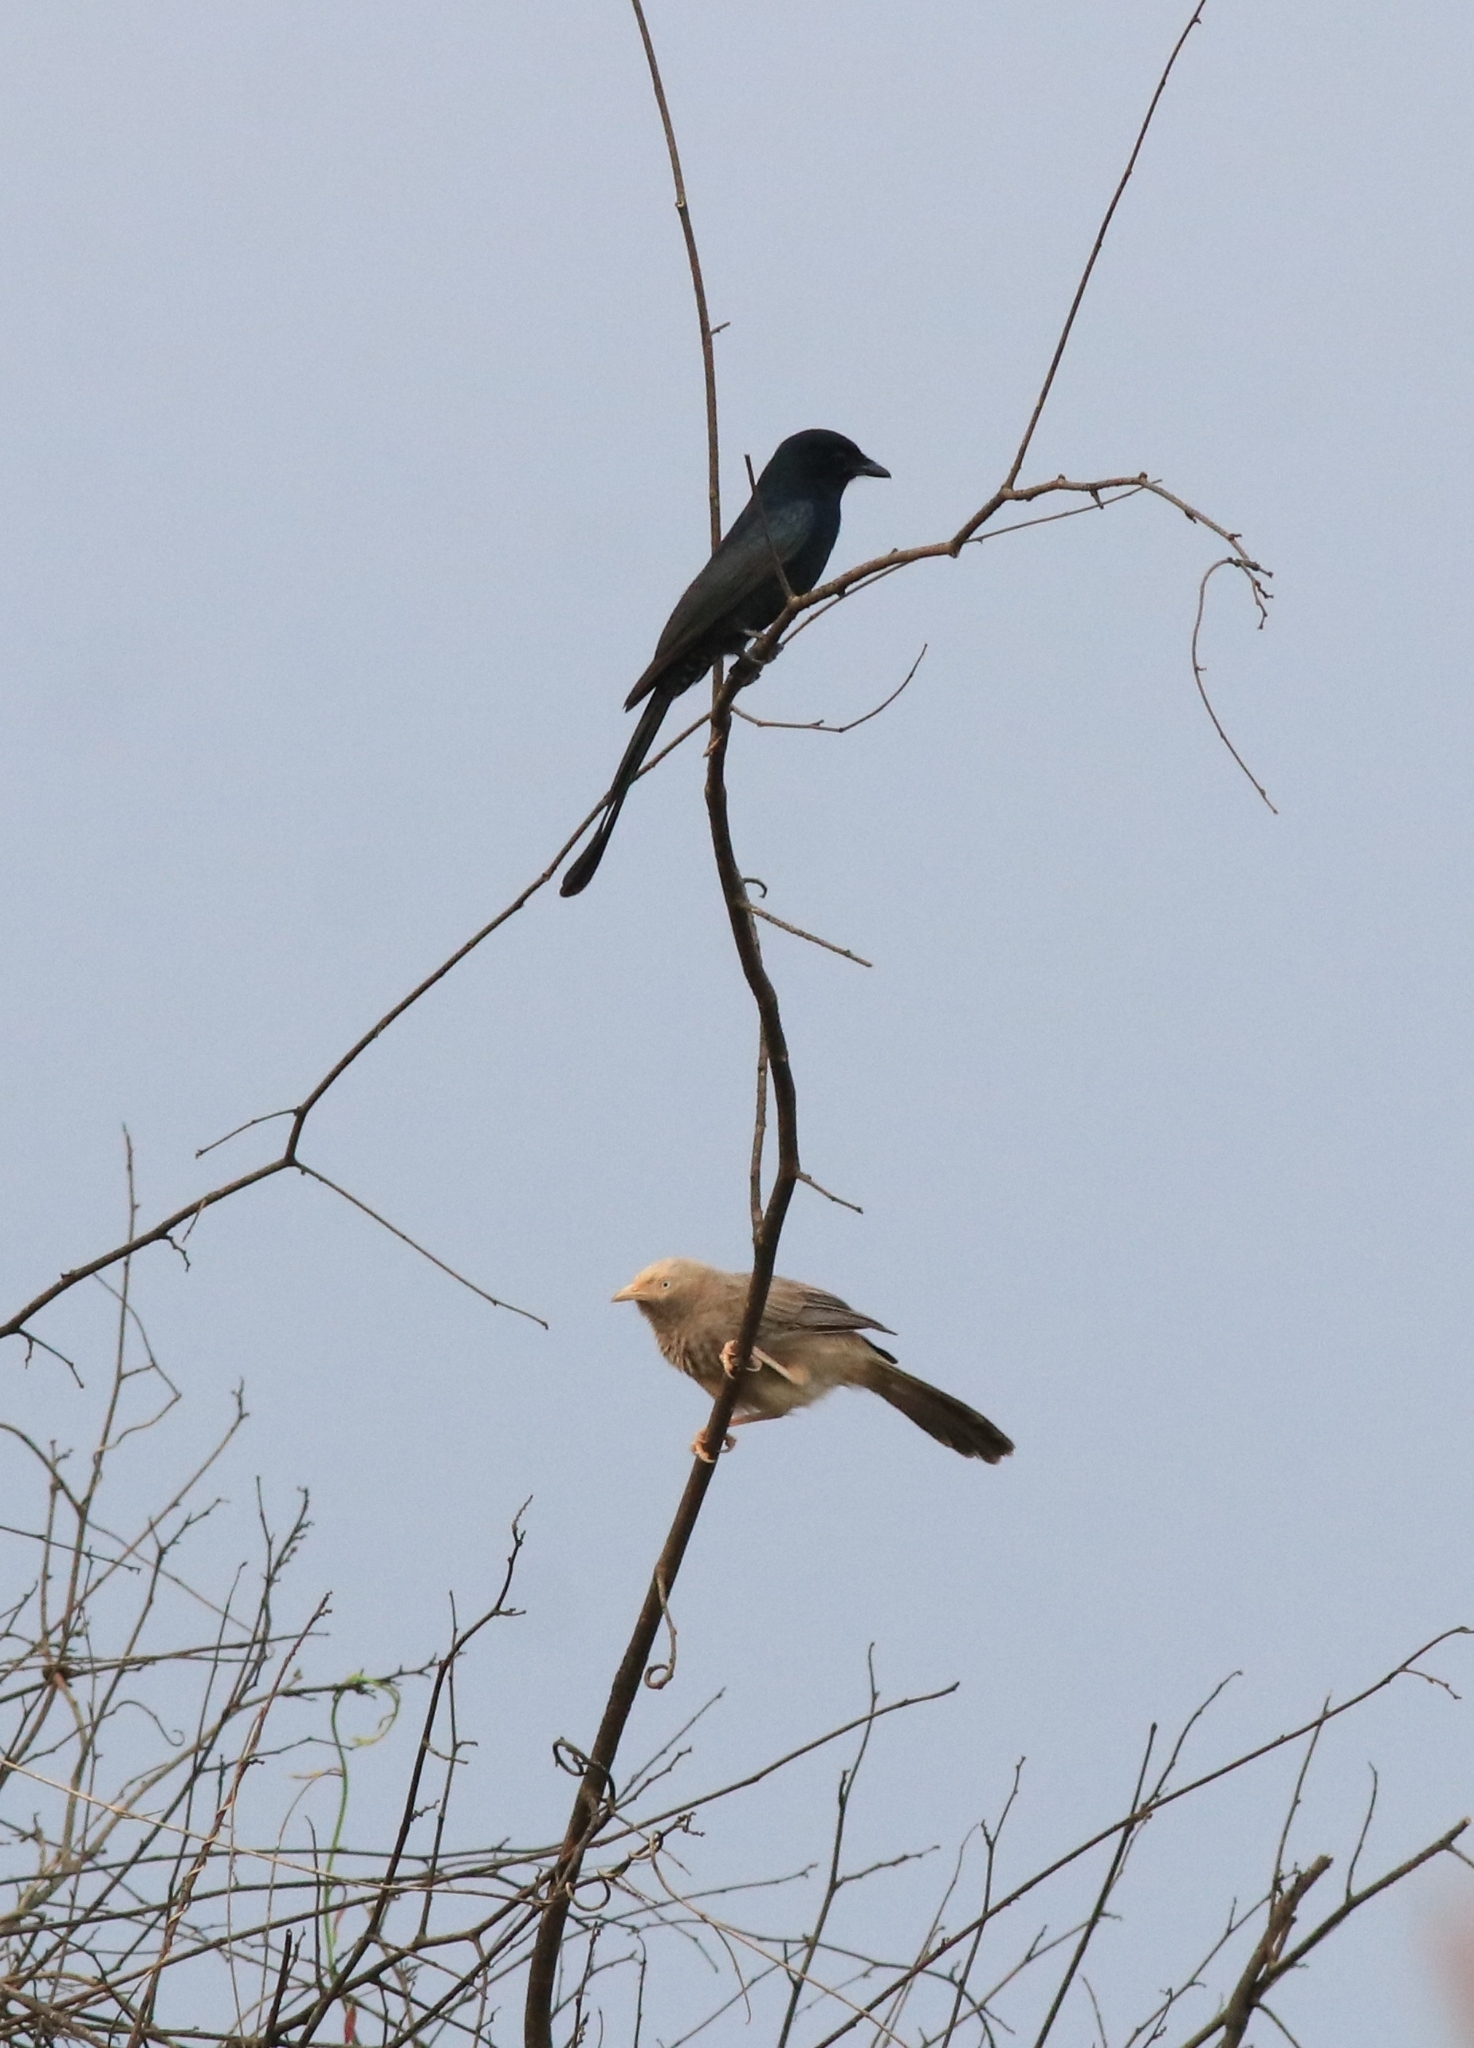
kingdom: Animalia
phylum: Chordata
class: Aves
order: Passeriformes
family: Leiothrichidae
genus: Turdoides
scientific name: Turdoides affinis
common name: Yellow-billed babbler
